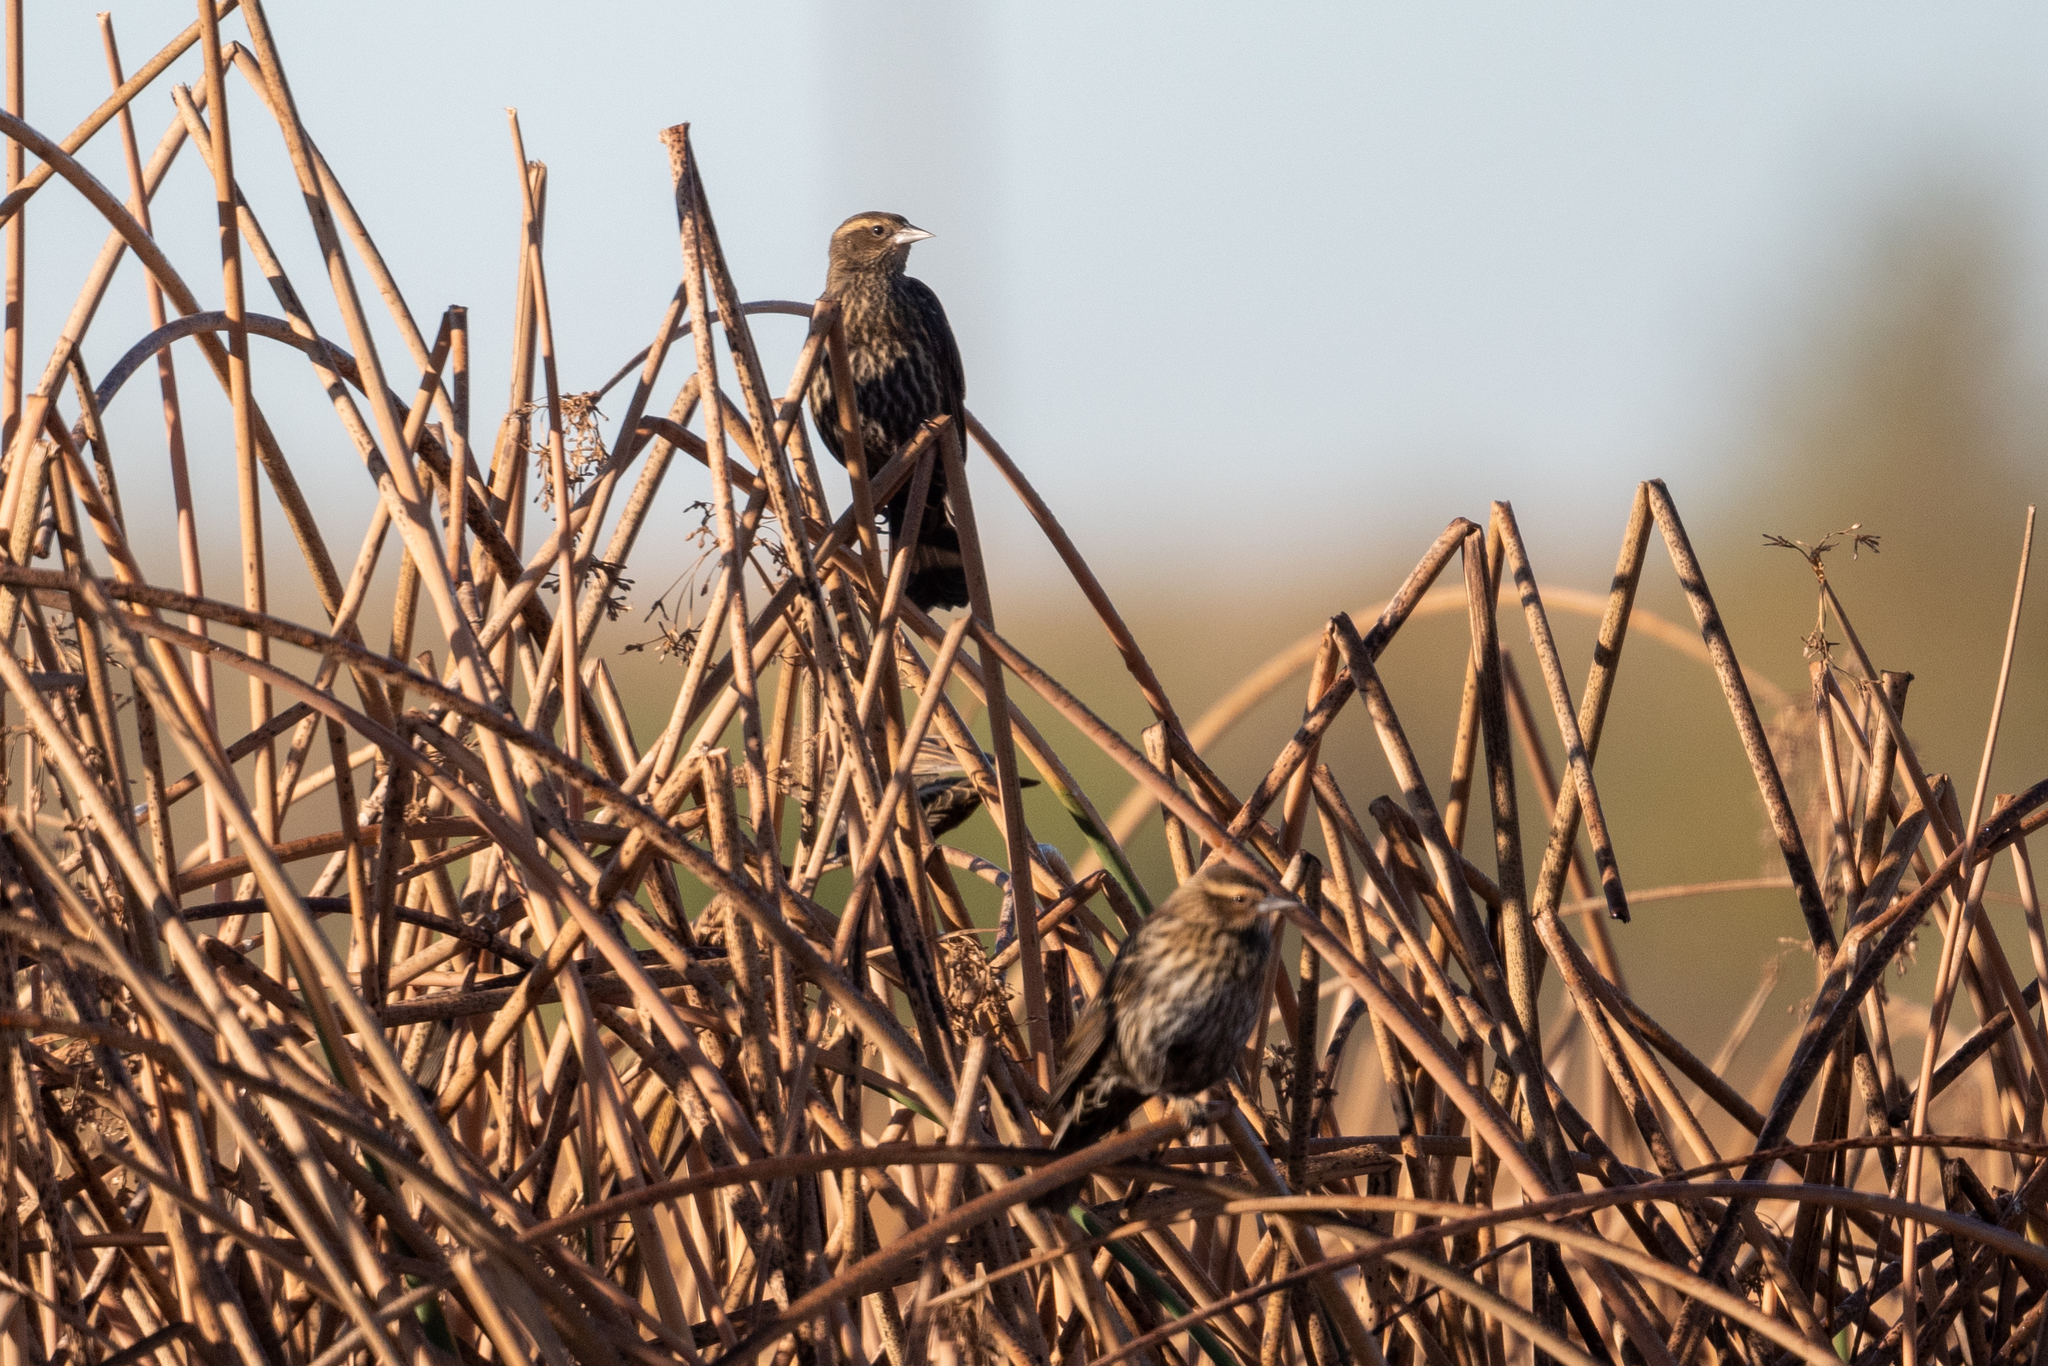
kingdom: Animalia
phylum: Chordata
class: Aves
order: Passeriformes
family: Icteridae
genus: Agelaius
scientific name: Agelaius phoeniceus
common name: Red-winged blackbird
